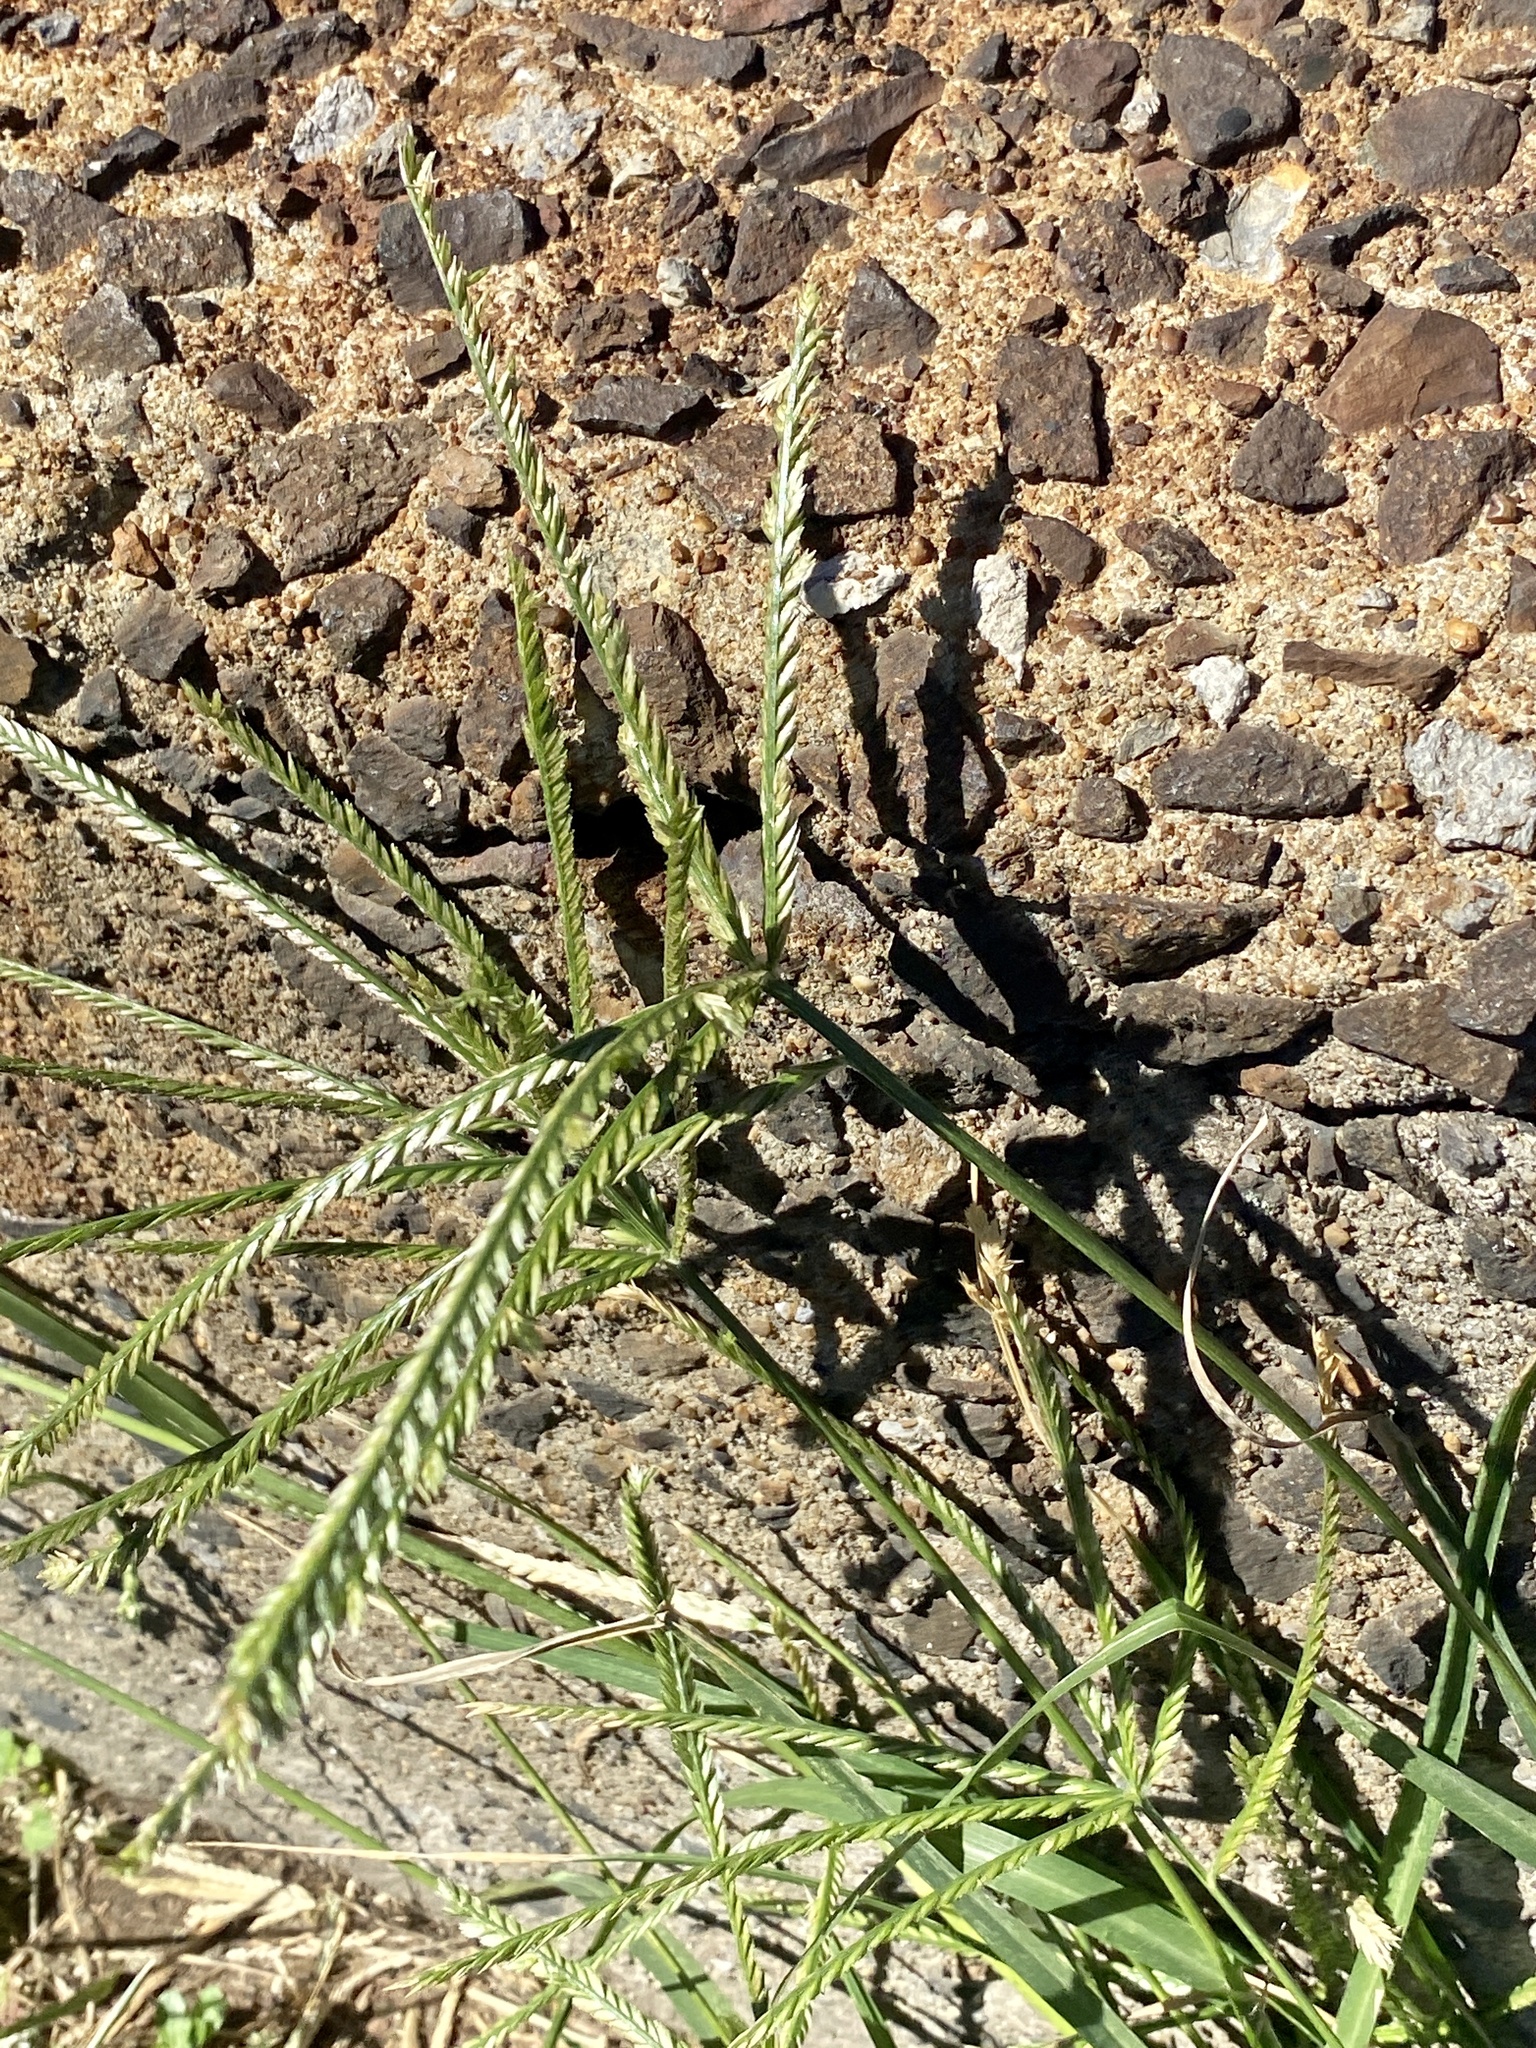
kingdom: Plantae
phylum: Tracheophyta
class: Liliopsida
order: Poales
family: Poaceae
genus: Eleusine
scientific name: Eleusine indica
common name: Yard-grass
